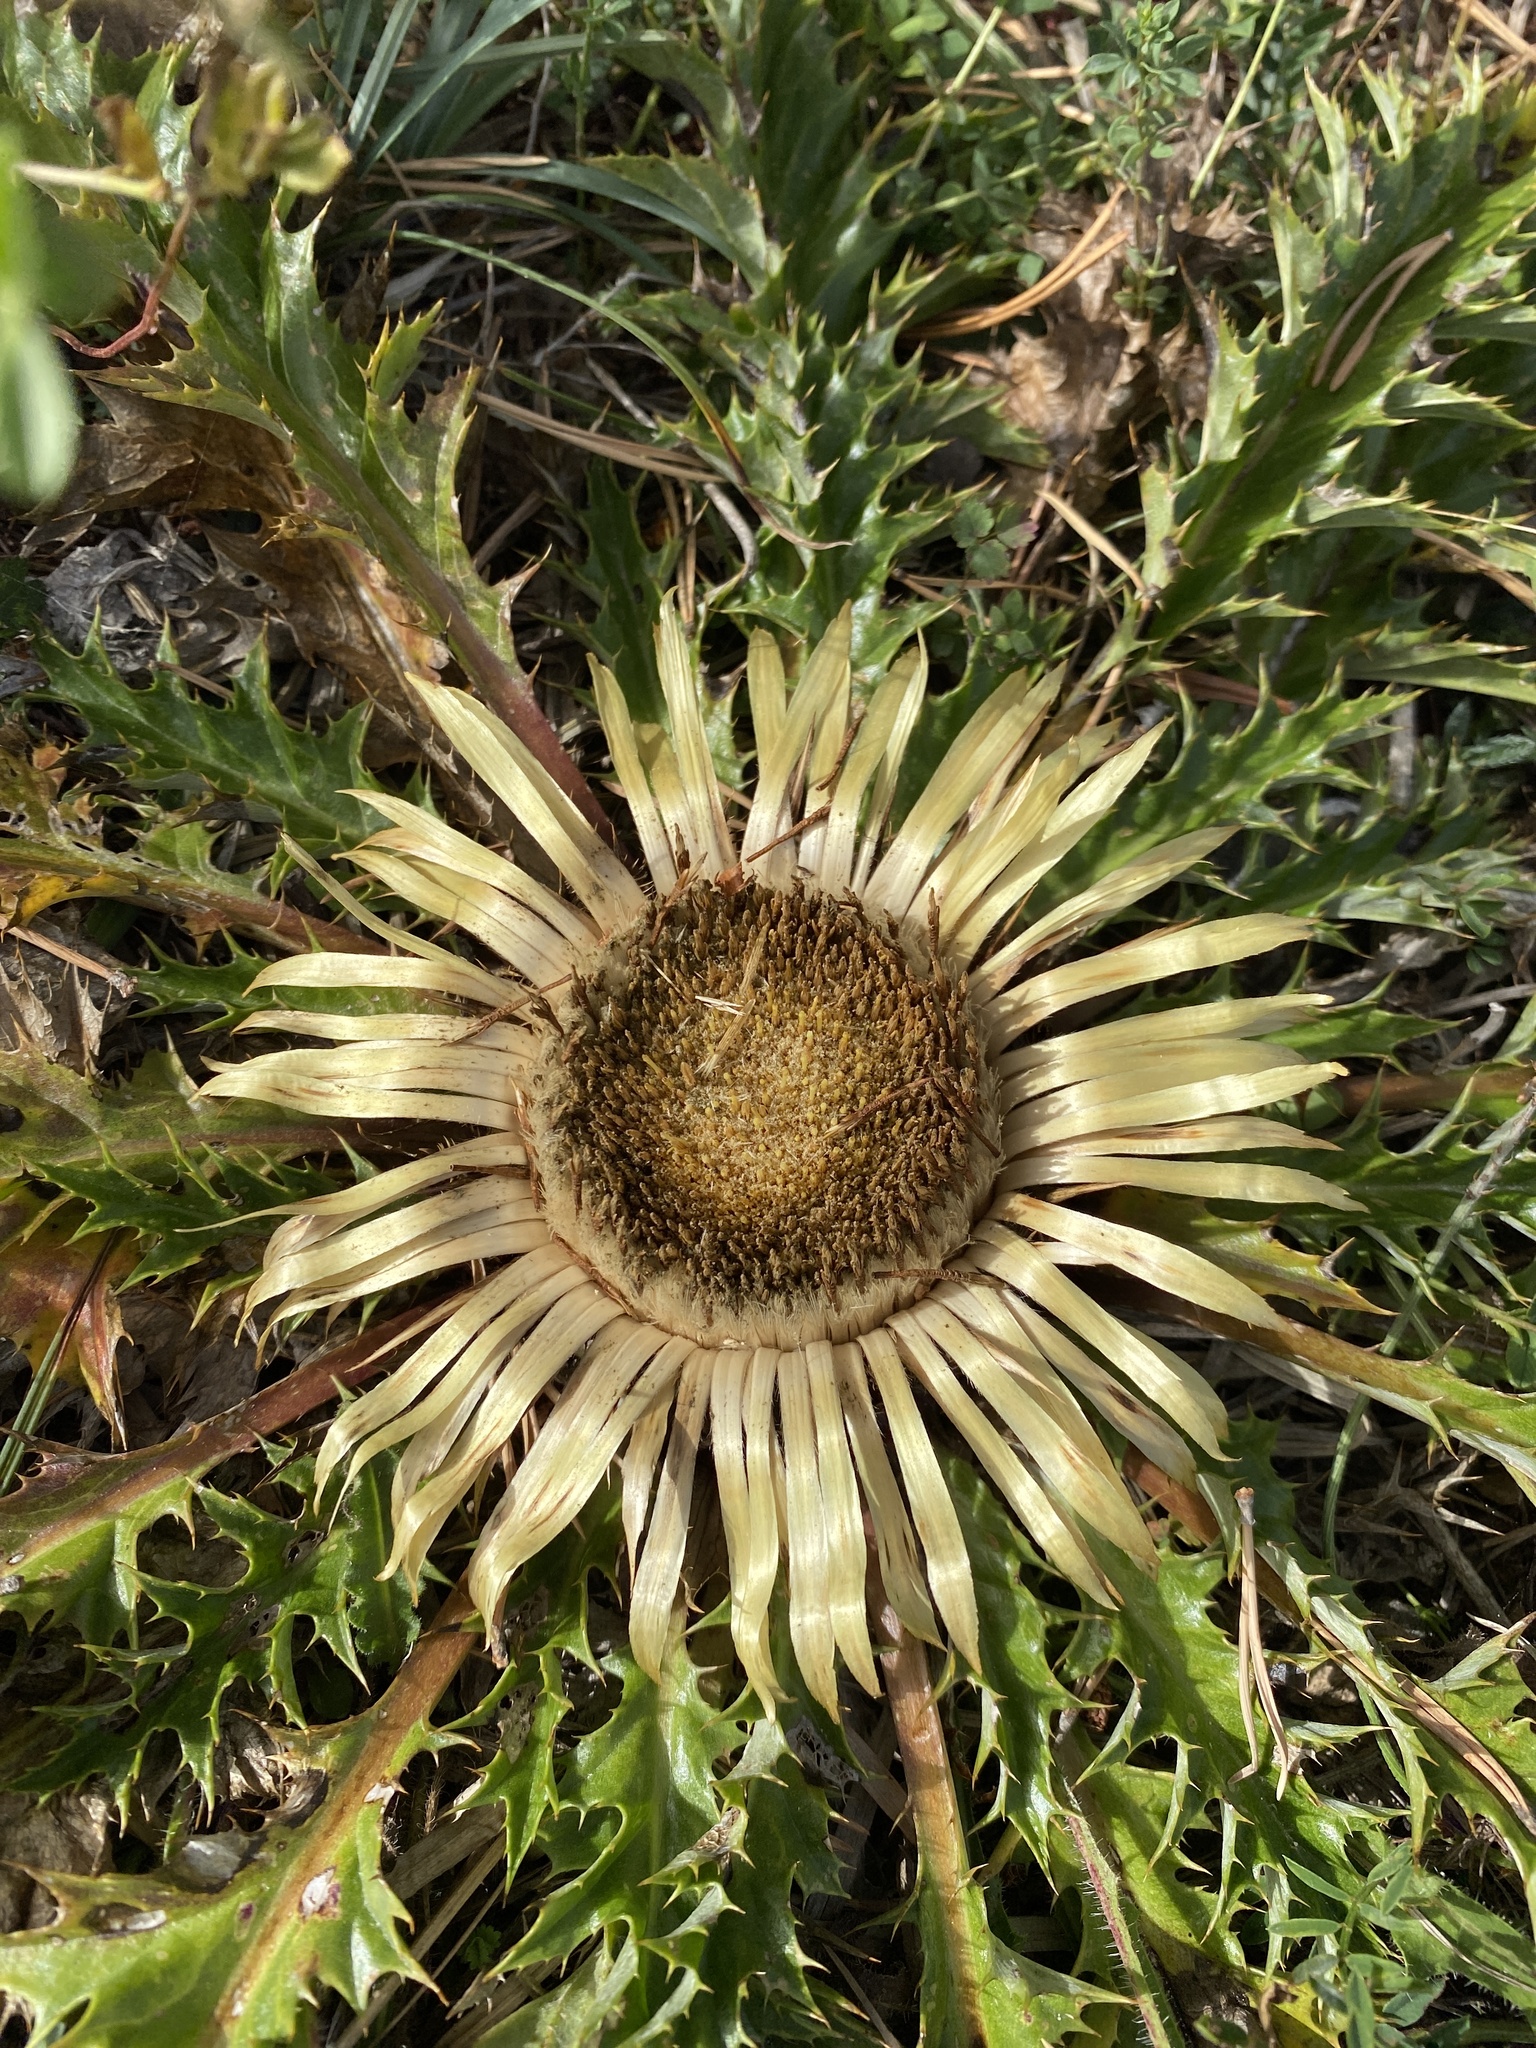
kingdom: Plantae
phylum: Tracheophyta
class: Magnoliopsida
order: Asterales
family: Asteraceae
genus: Carlina
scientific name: Carlina acanthifolia
